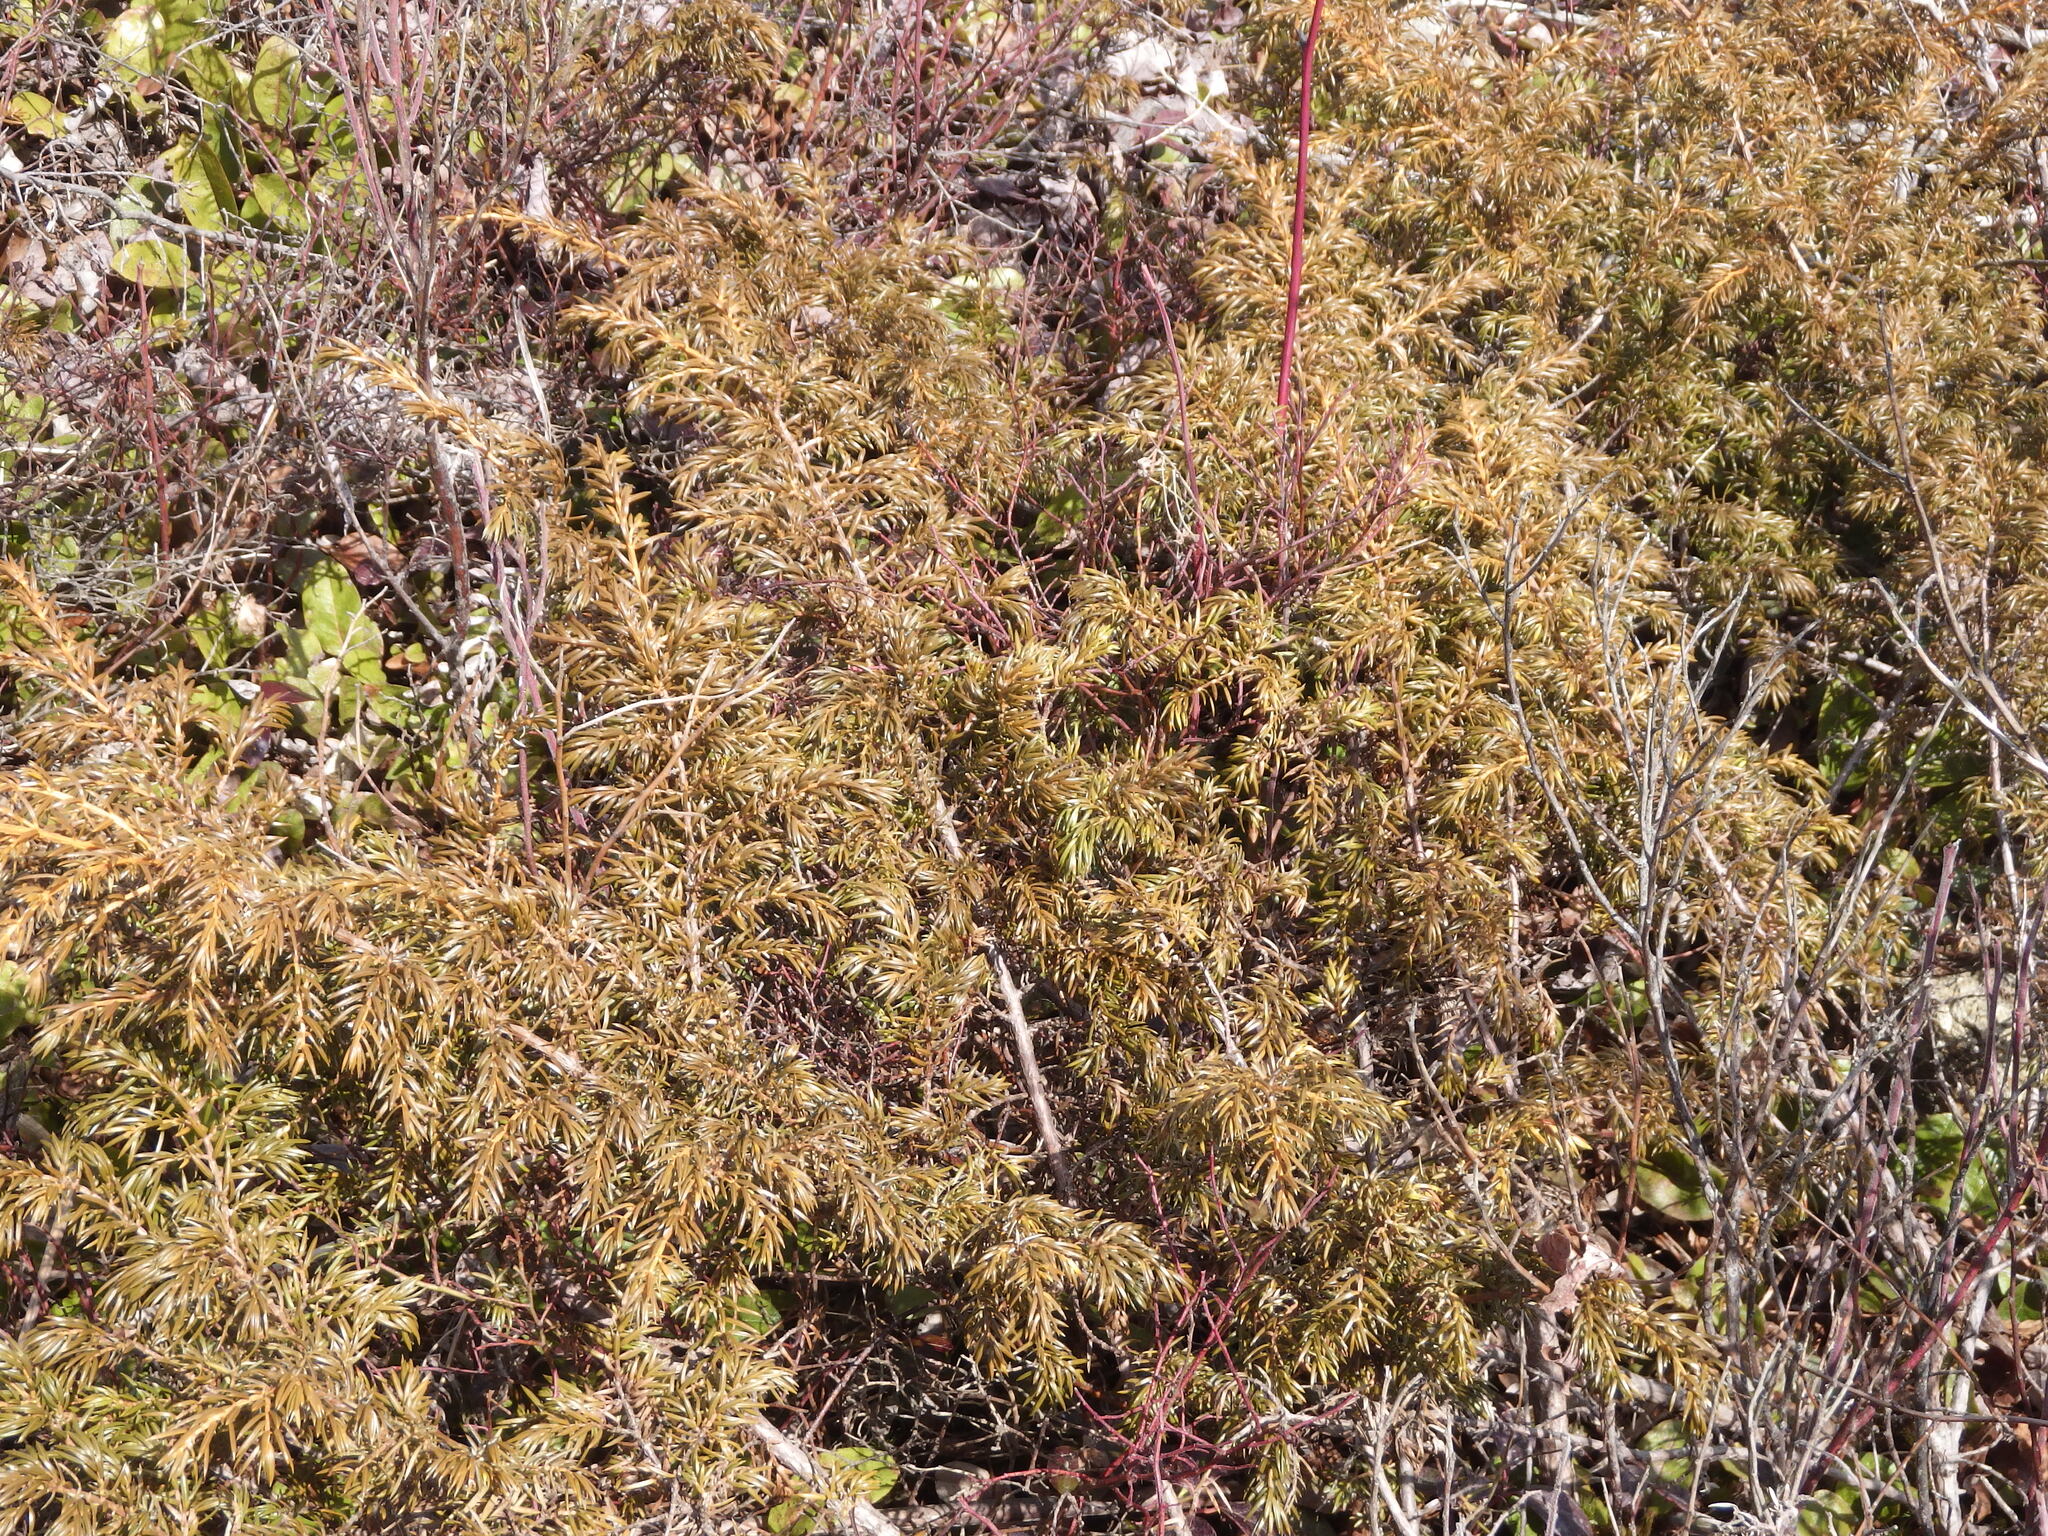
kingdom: Plantae
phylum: Tracheophyta
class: Pinopsida
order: Pinales
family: Cupressaceae
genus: Juniperus
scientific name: Juniperus communis
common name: Common juniper
